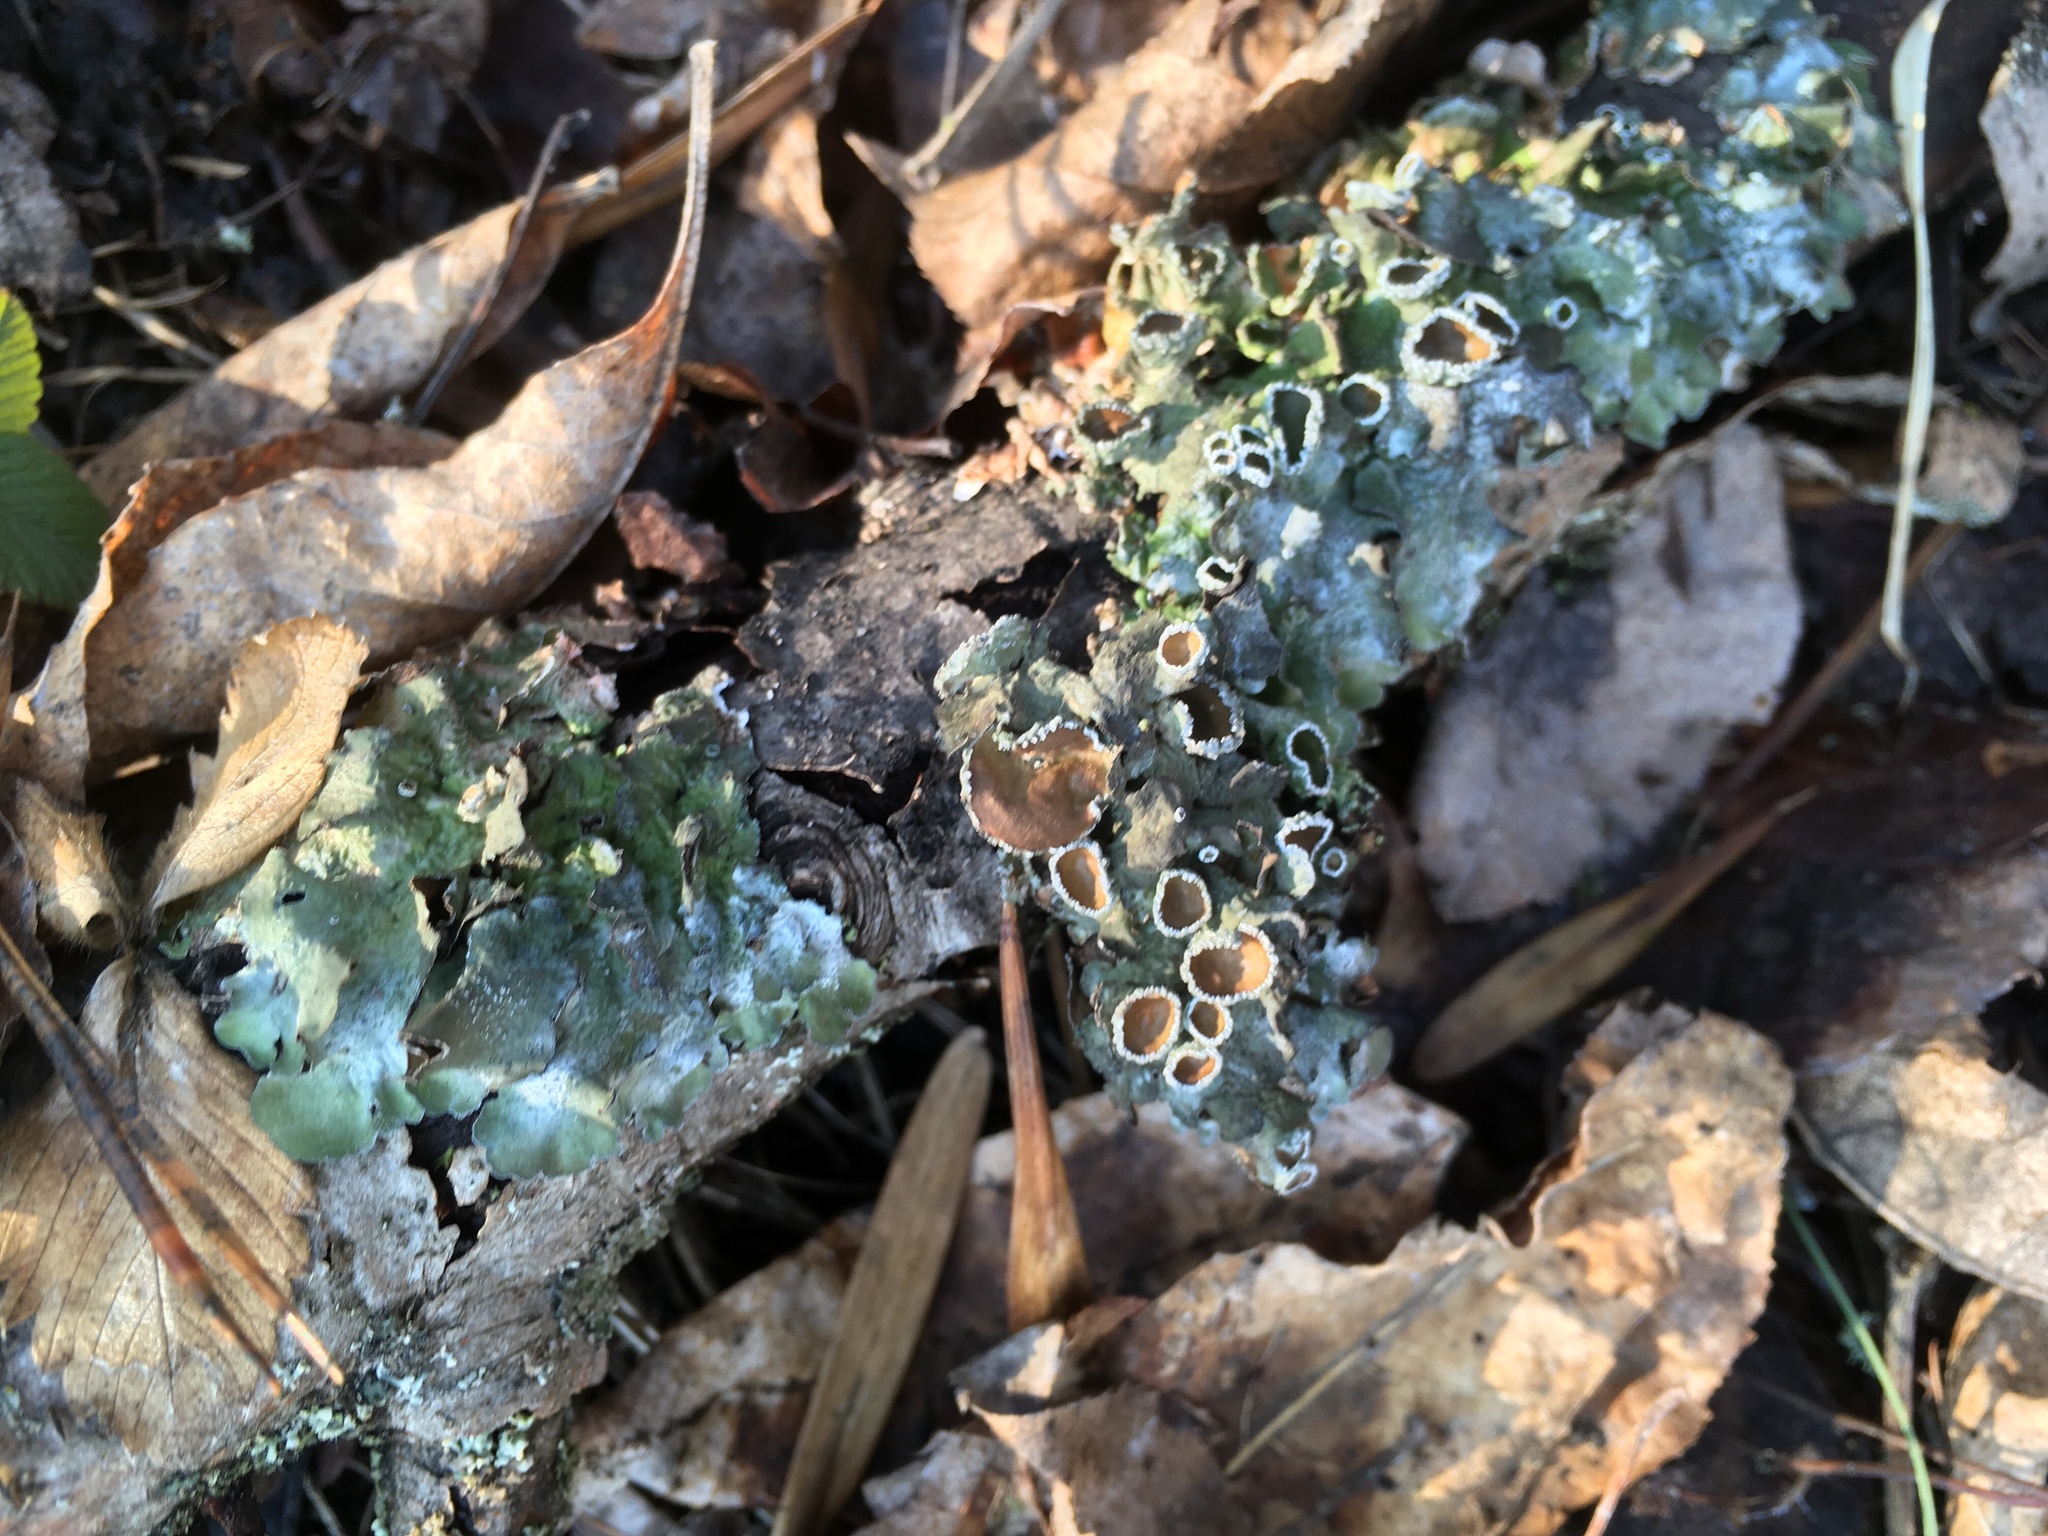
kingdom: Fungi
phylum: Ascomycota
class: Lecanoromycetes
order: Lecanorales
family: Parmeliaceae
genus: Pleurosticta
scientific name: Pleurosticta acetabulum
